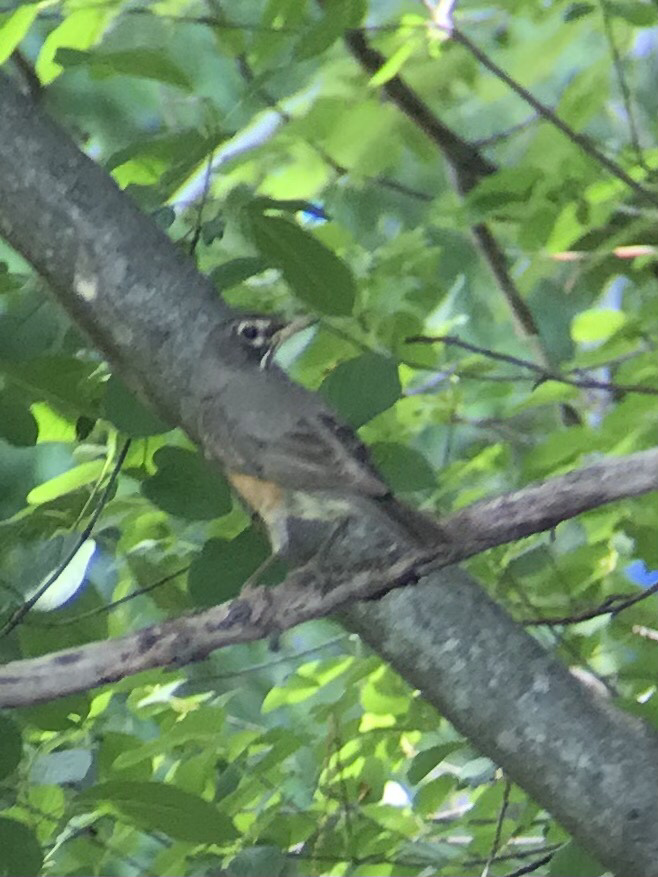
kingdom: Animalia
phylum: Chordata
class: Aves
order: Passeriformes
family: Turdidae
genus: Turdus
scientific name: Turdus migratorius
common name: American robin
